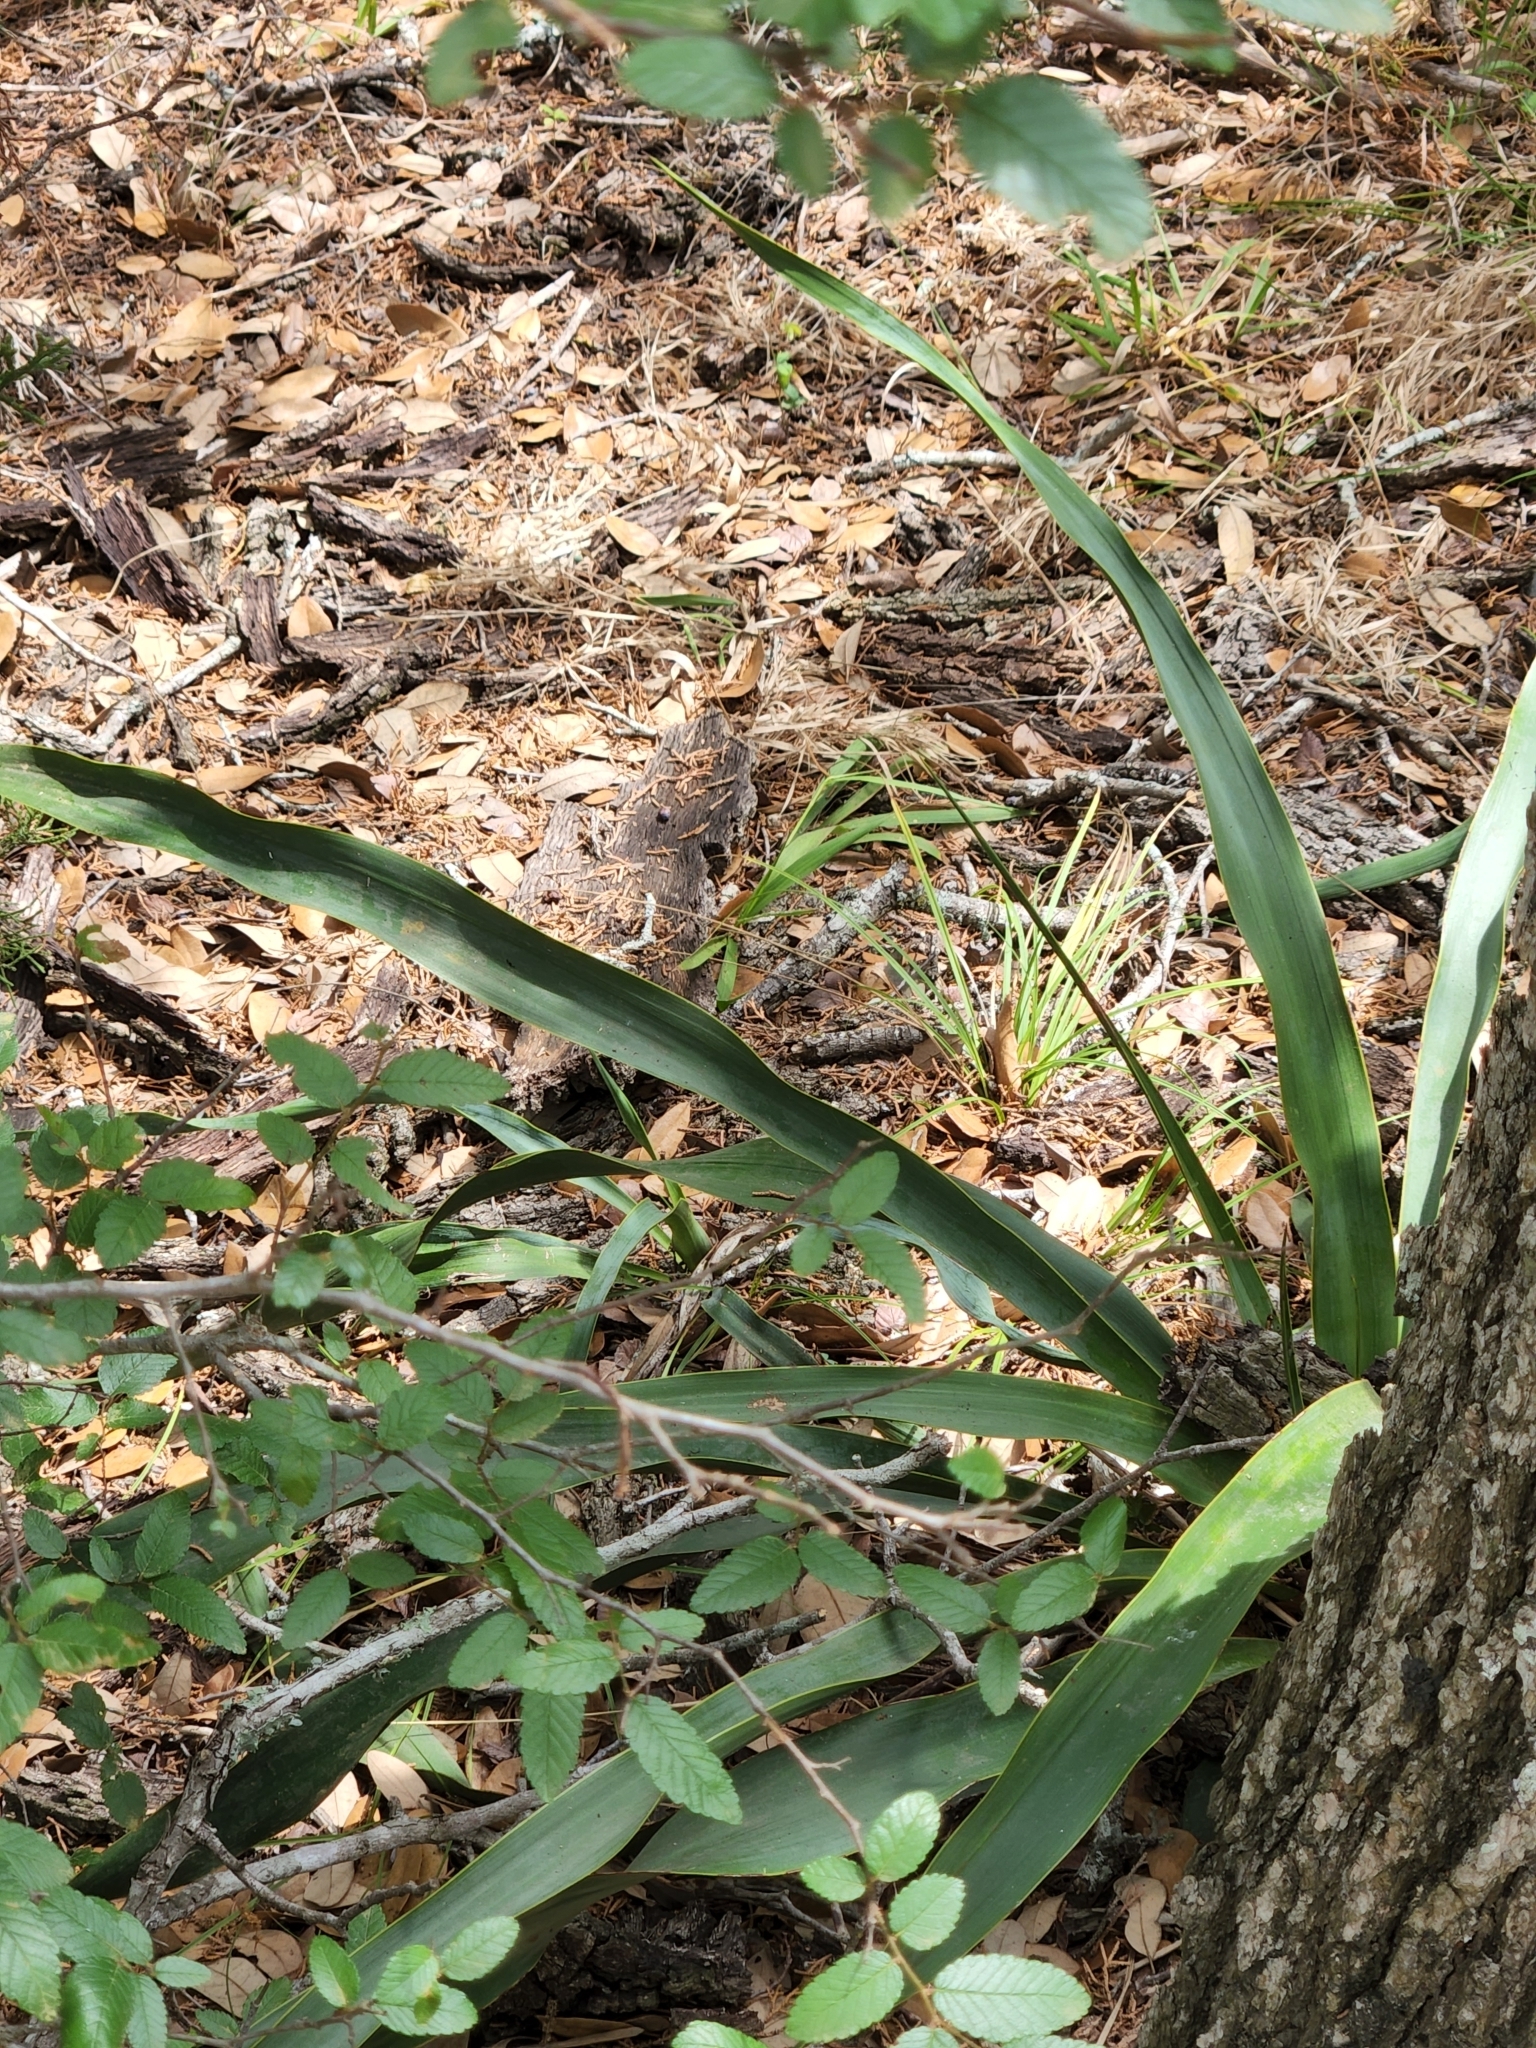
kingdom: Plantae
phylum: Tracheophyta
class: Liliopsida
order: Asparagales
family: Asparagaceae
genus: Yucca
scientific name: Yucca rupicola
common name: Twisted-leaf spanish-dagger
